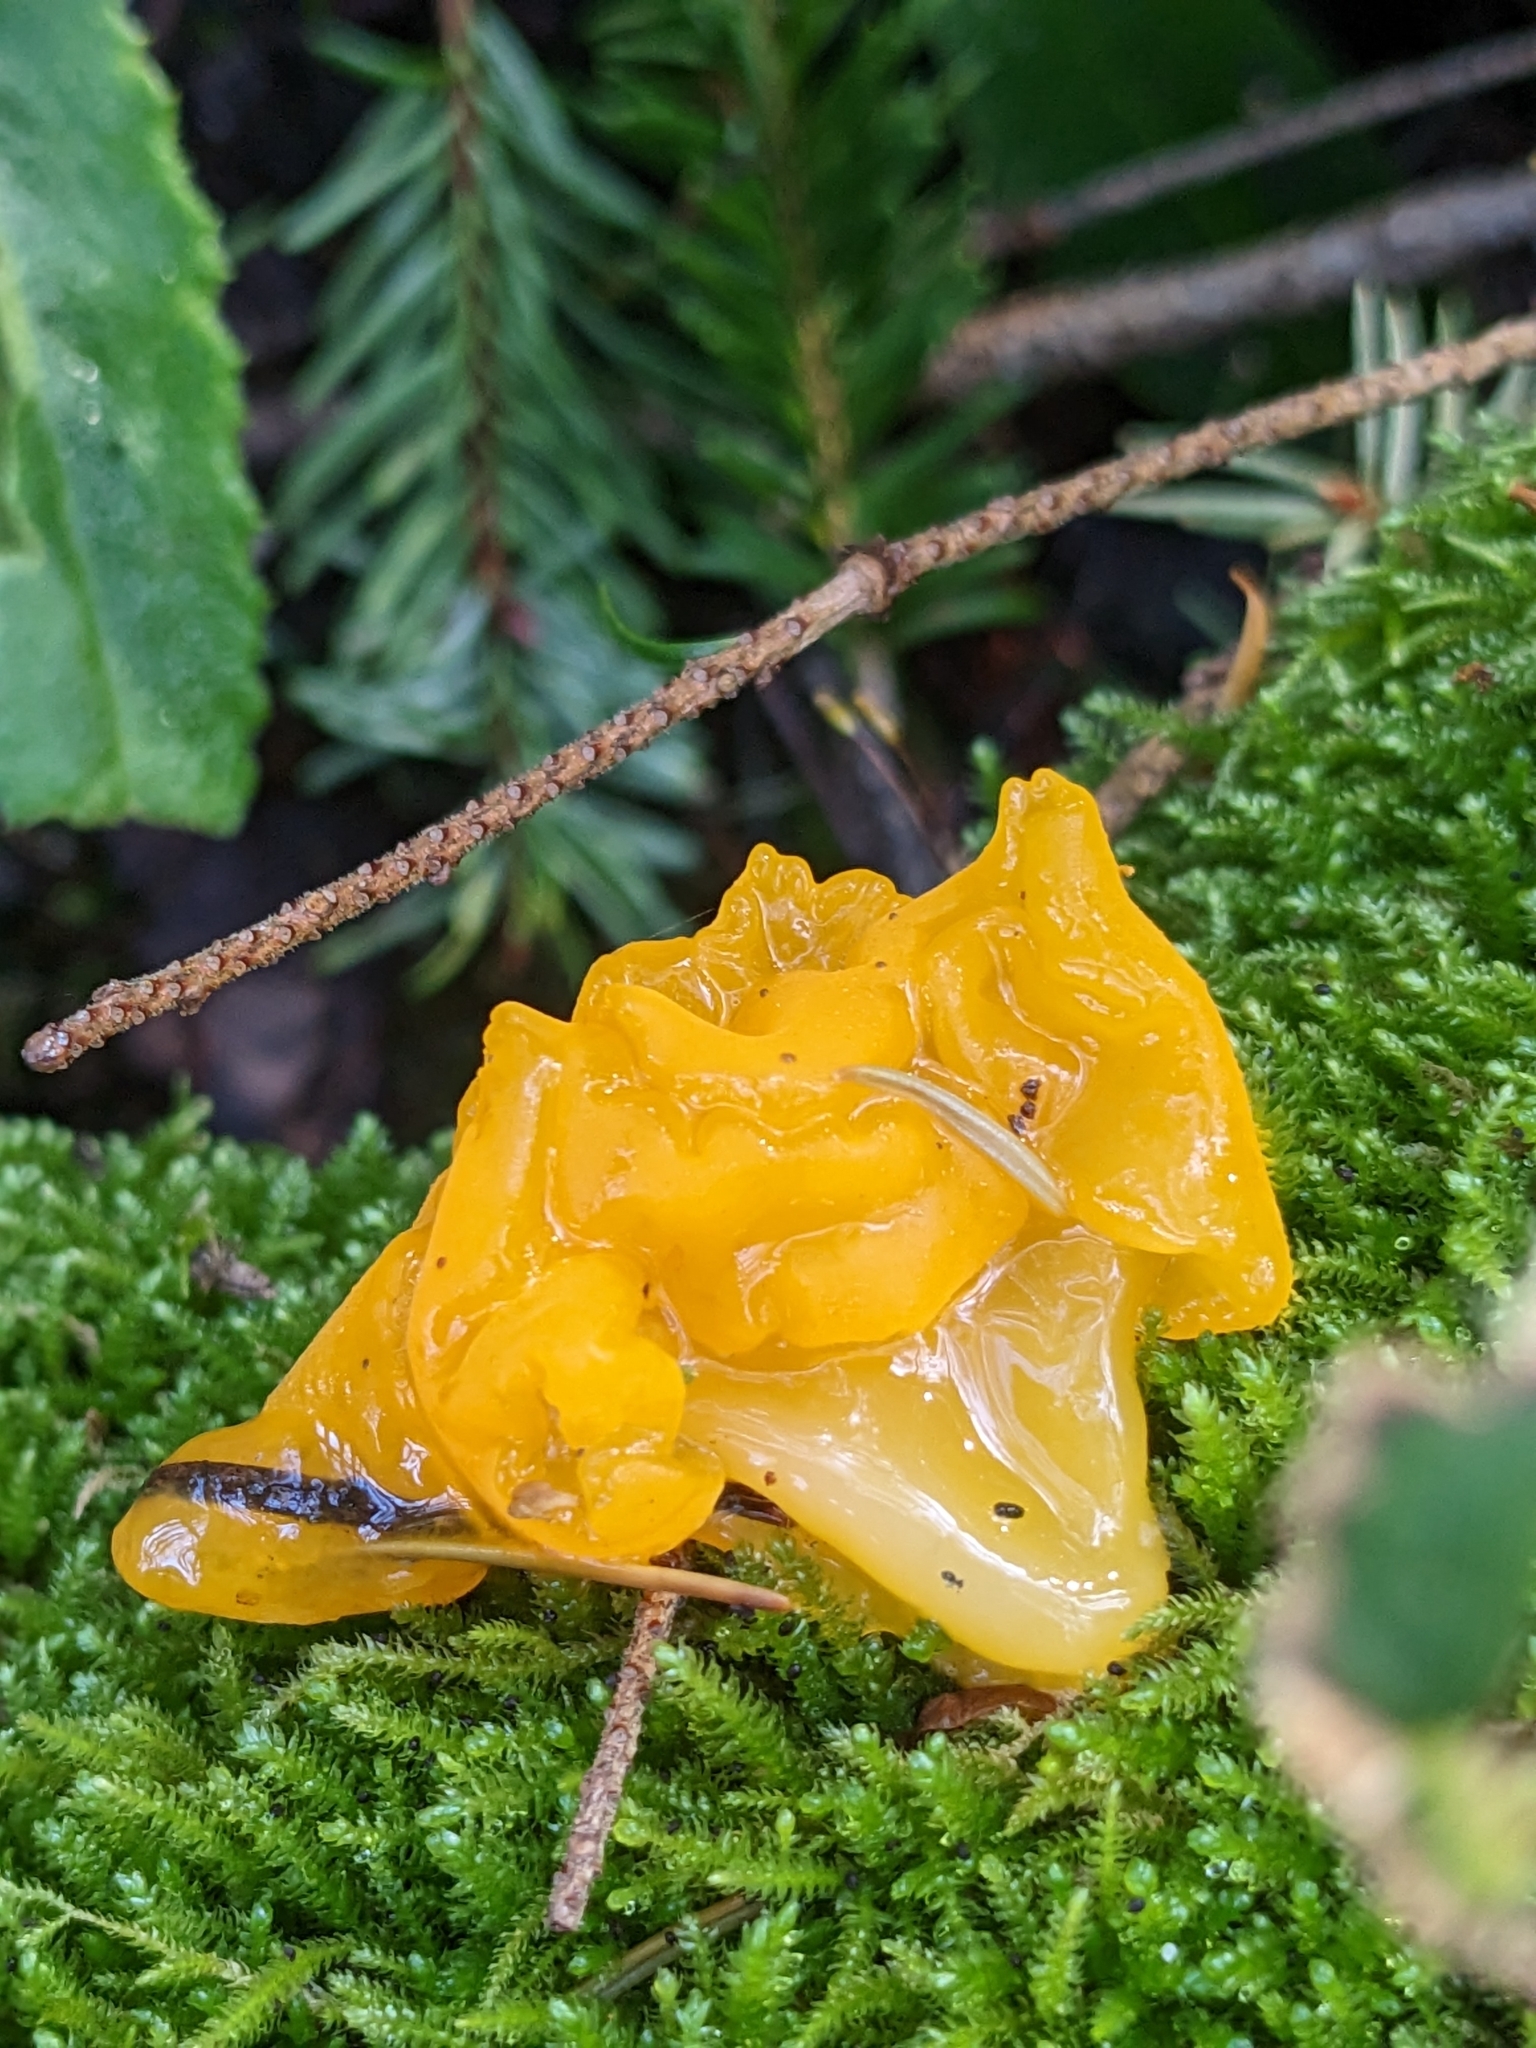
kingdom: Fungi
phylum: Basidiomycota
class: Tremellomycetes
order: Tremellales
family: Tremellaceae
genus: Tremella
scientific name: Tremella mesenterica
